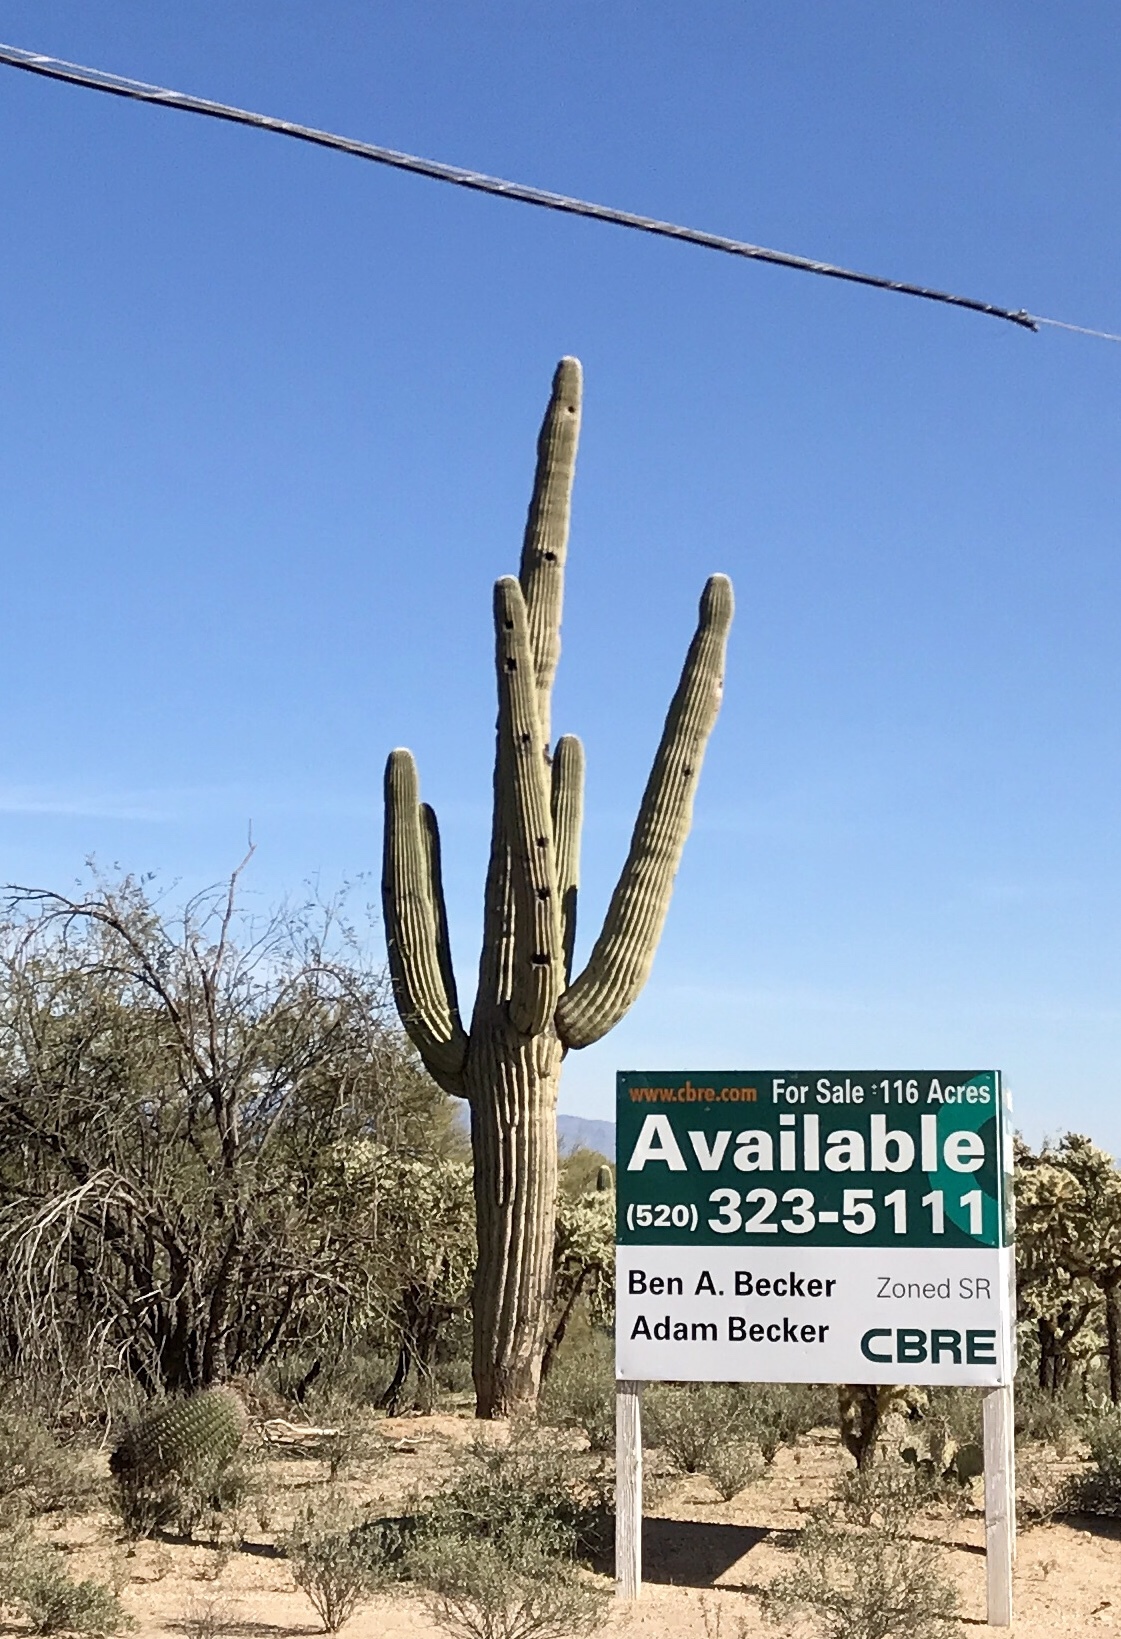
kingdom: Plantae
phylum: Tracheophyta
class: Magnoliopsida
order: Caryophyllales
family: Cactaceae
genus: Carnegiea
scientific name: Carnegiea gigantea
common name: Saguaro
